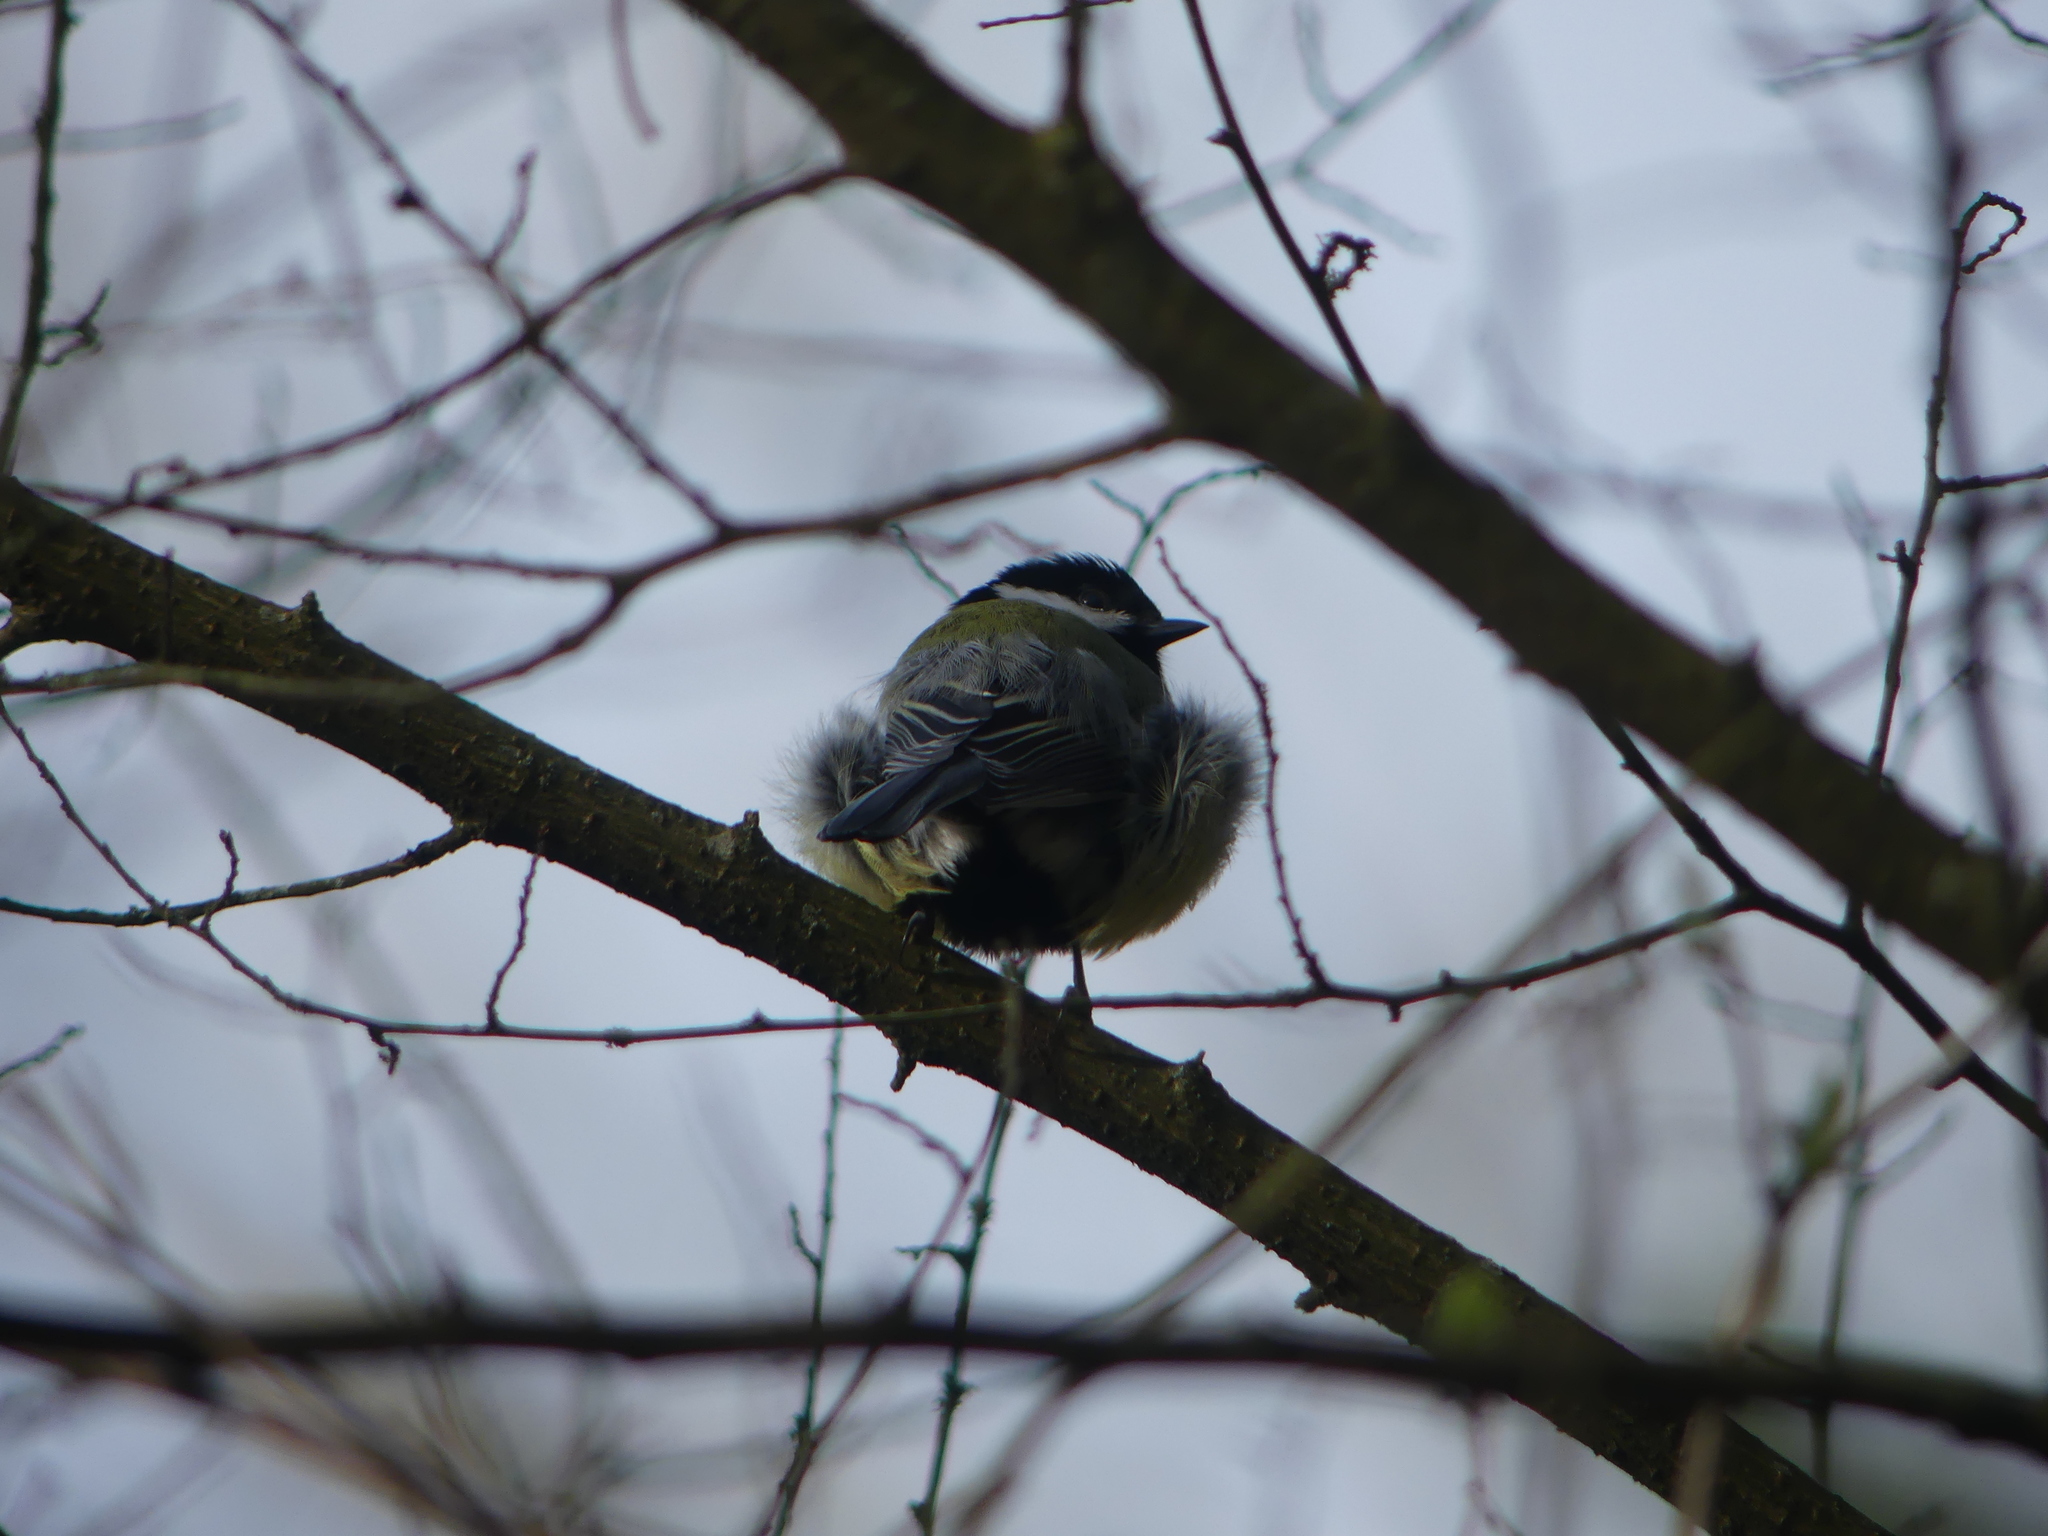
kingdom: Animalia
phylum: Chordata
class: Aves
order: Passeriformes
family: Paridae
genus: Parus
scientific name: Parus major
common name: Great tit
